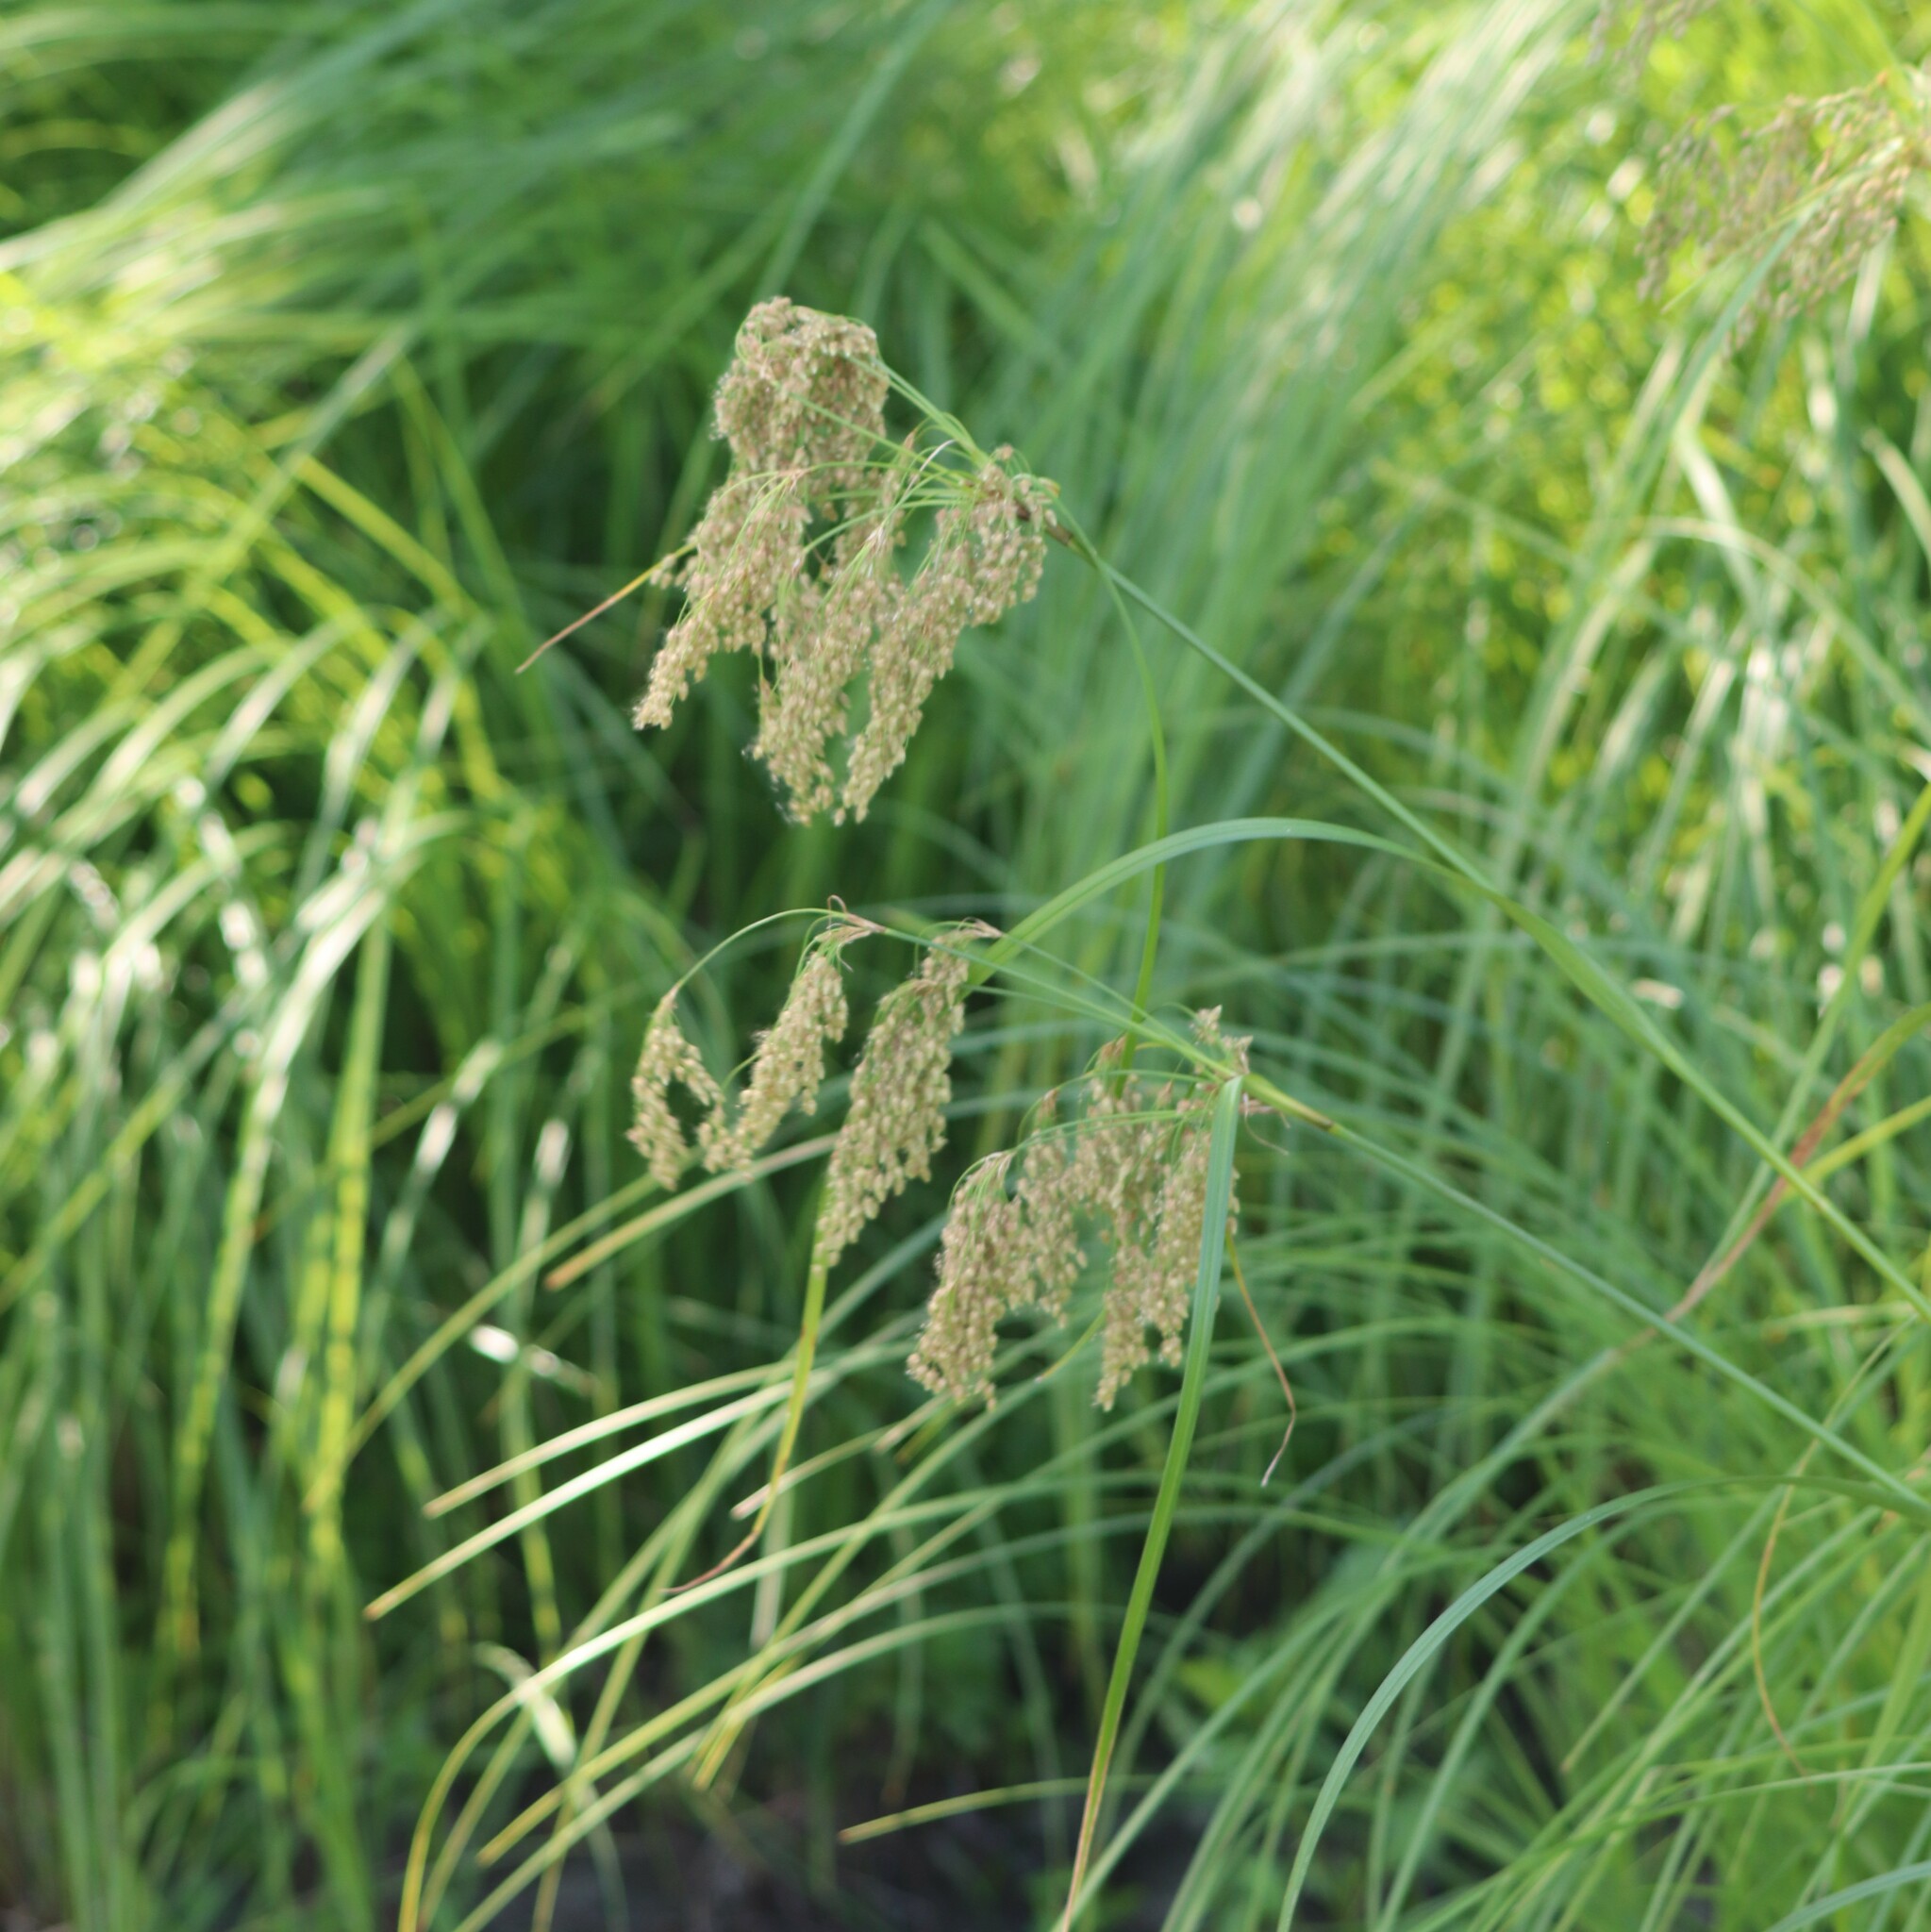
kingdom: Plantae
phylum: Tracheophyta
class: Liliopsida
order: Poales
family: Cyperaceae
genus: Scirpus
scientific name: Scirpus cyperinus
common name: Black-sheathed bulrush
